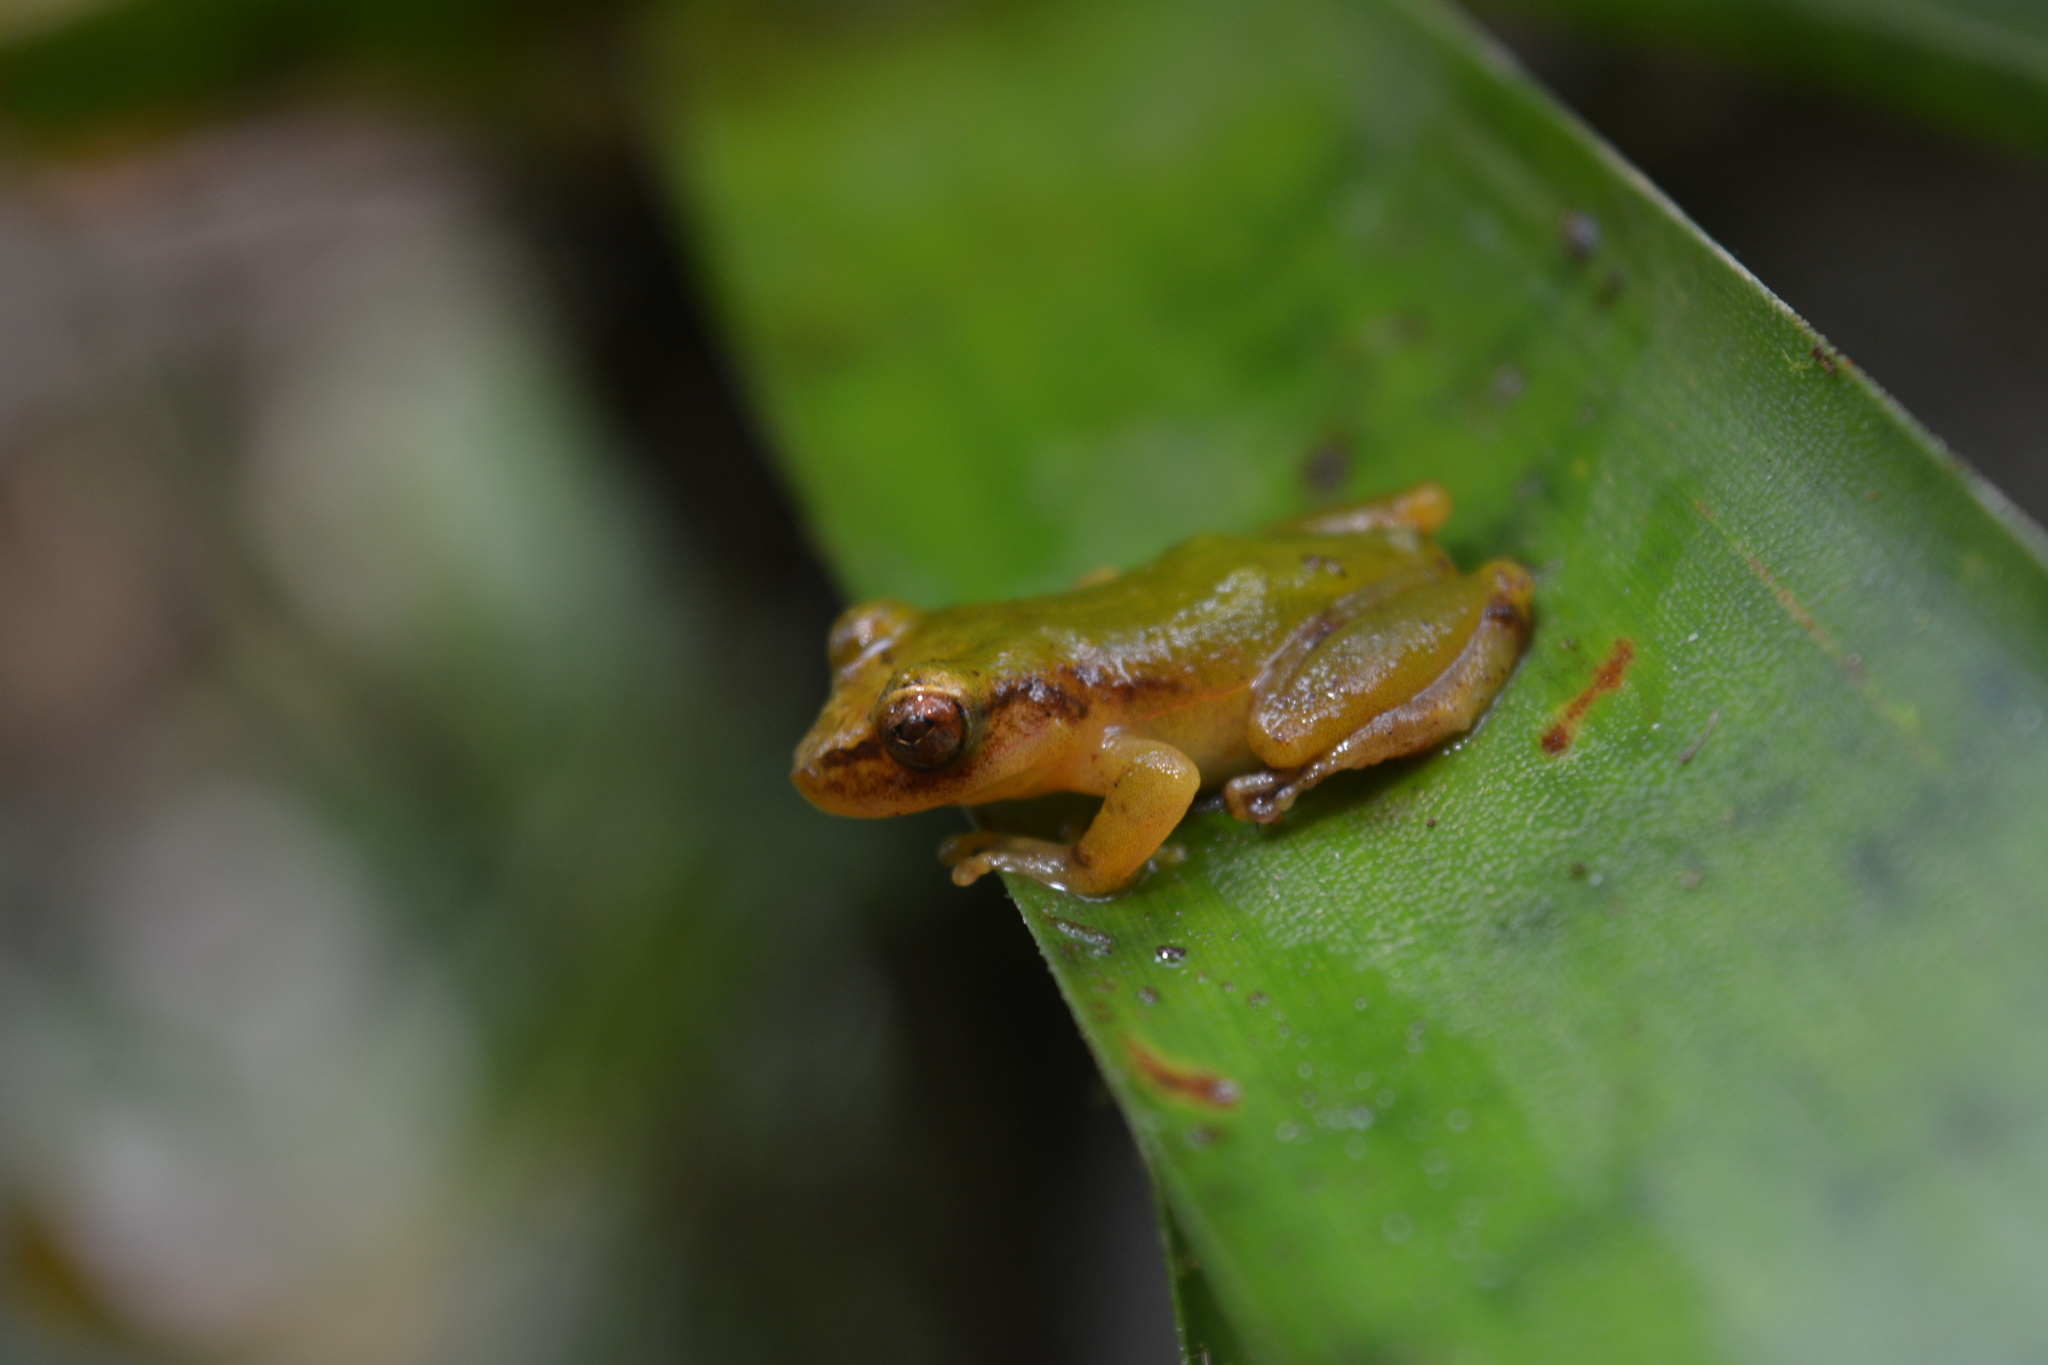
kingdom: Animalia
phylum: Chordata
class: Amphibia
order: Anura
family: Craugastoridae
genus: Pristimantis
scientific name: Pristimantis moro
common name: La hondura robber frog
